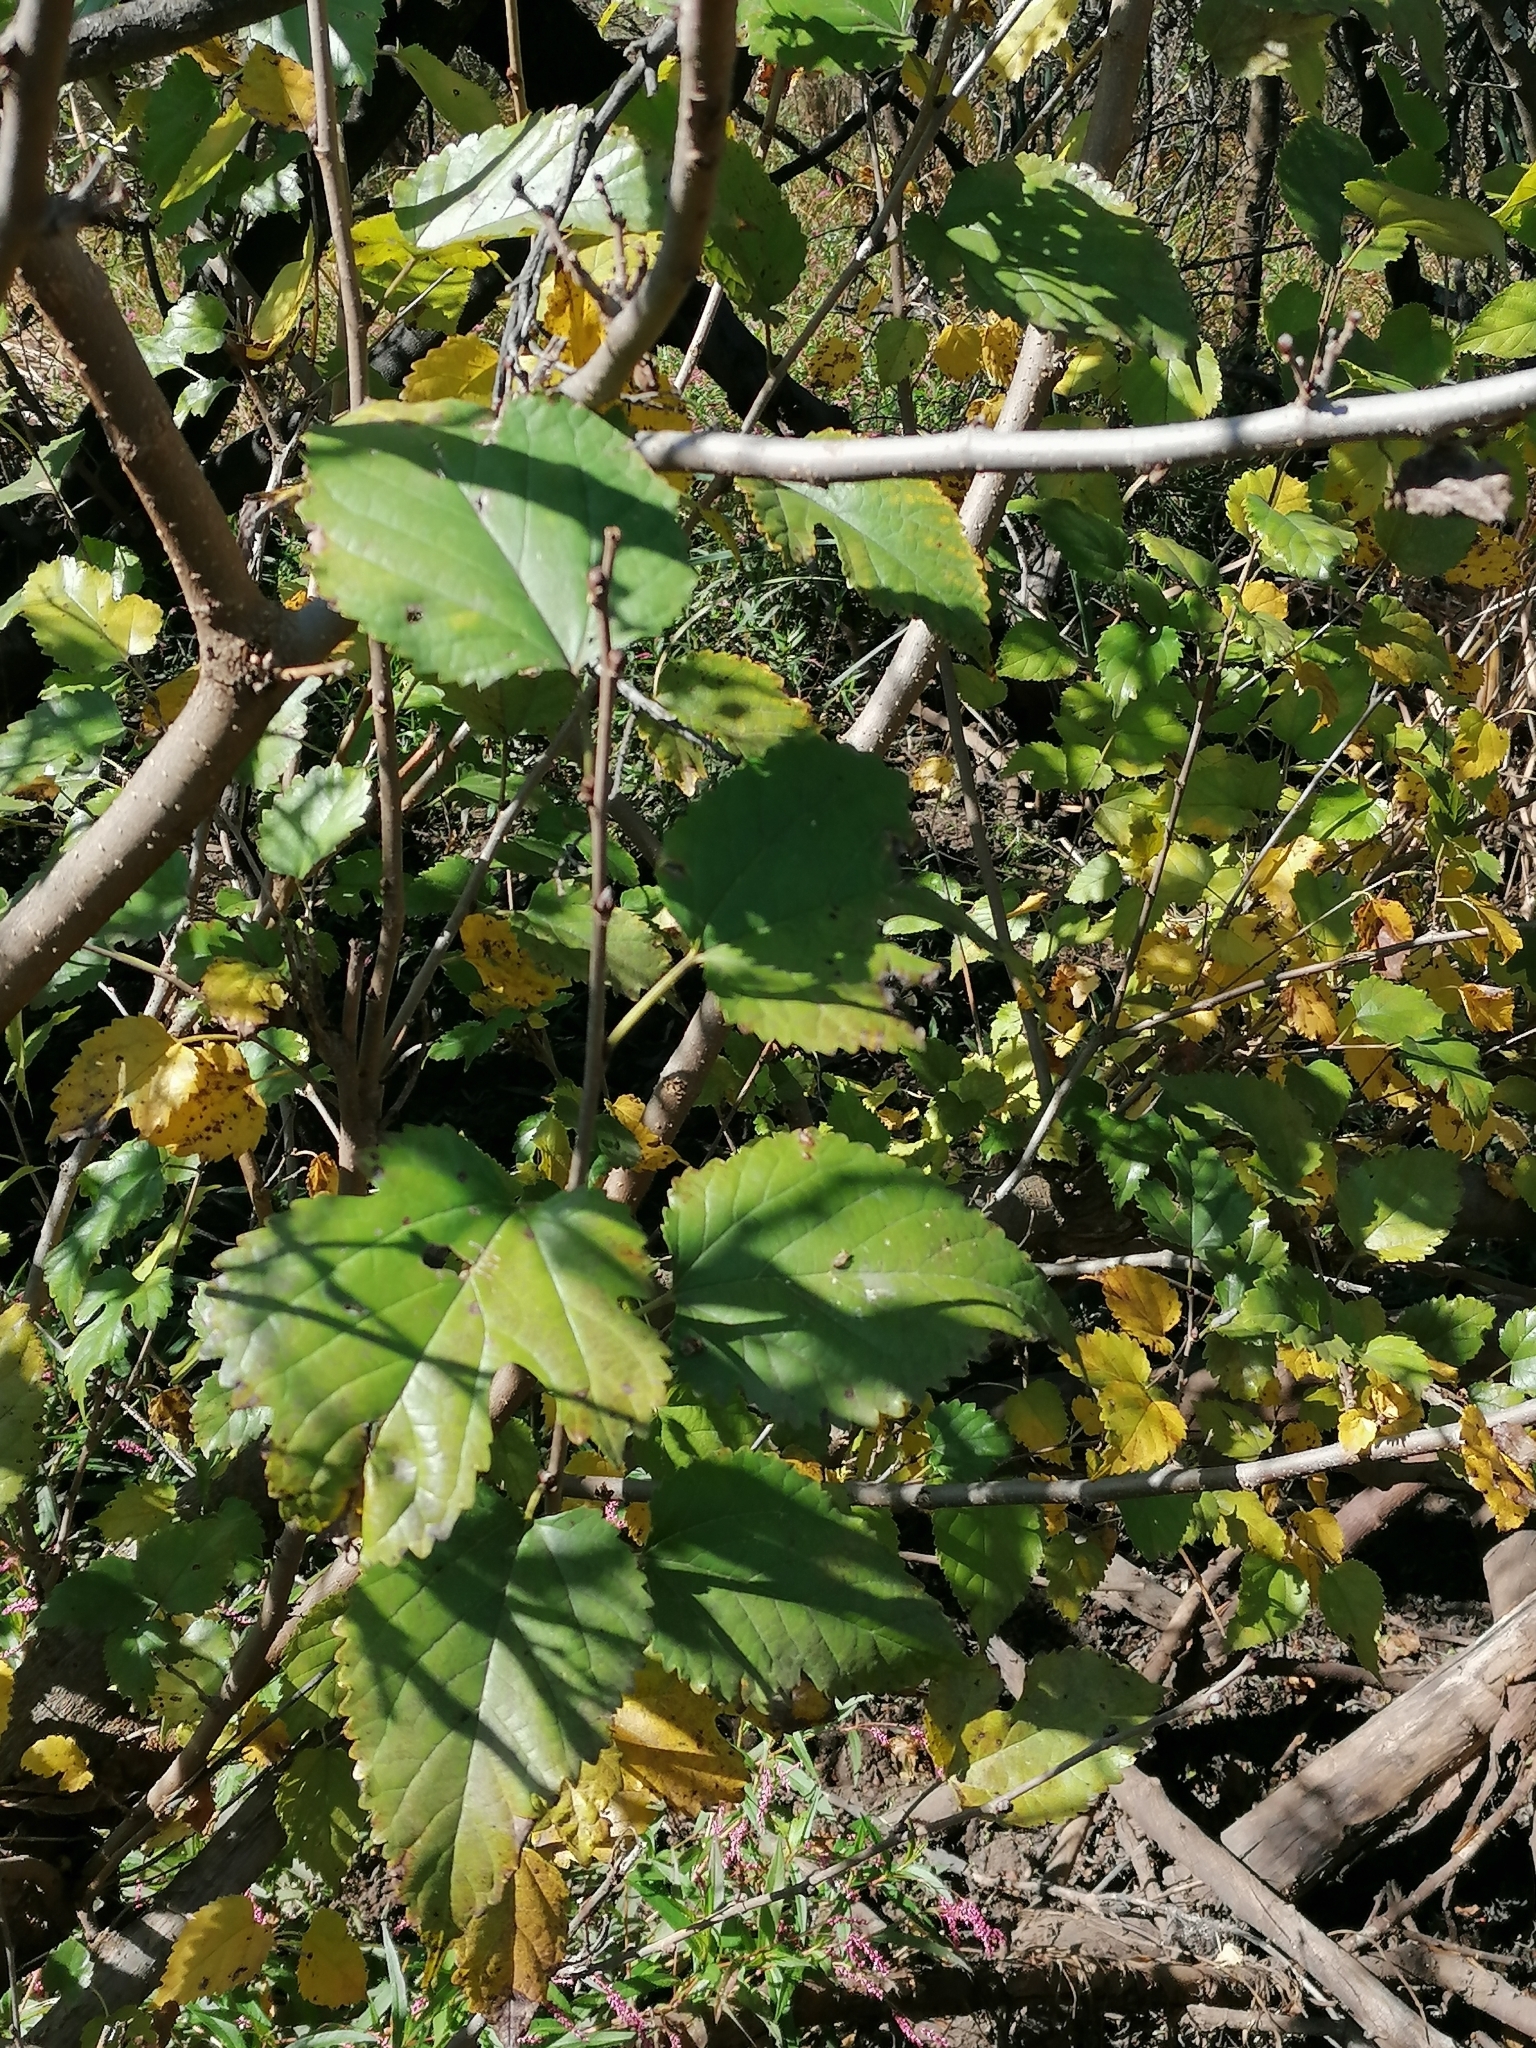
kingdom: Plantae
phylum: Tracheophyta
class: Magnoliopsida
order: Rosales
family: Moraceae
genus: Morus
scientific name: Morus alba
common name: White mulberry
